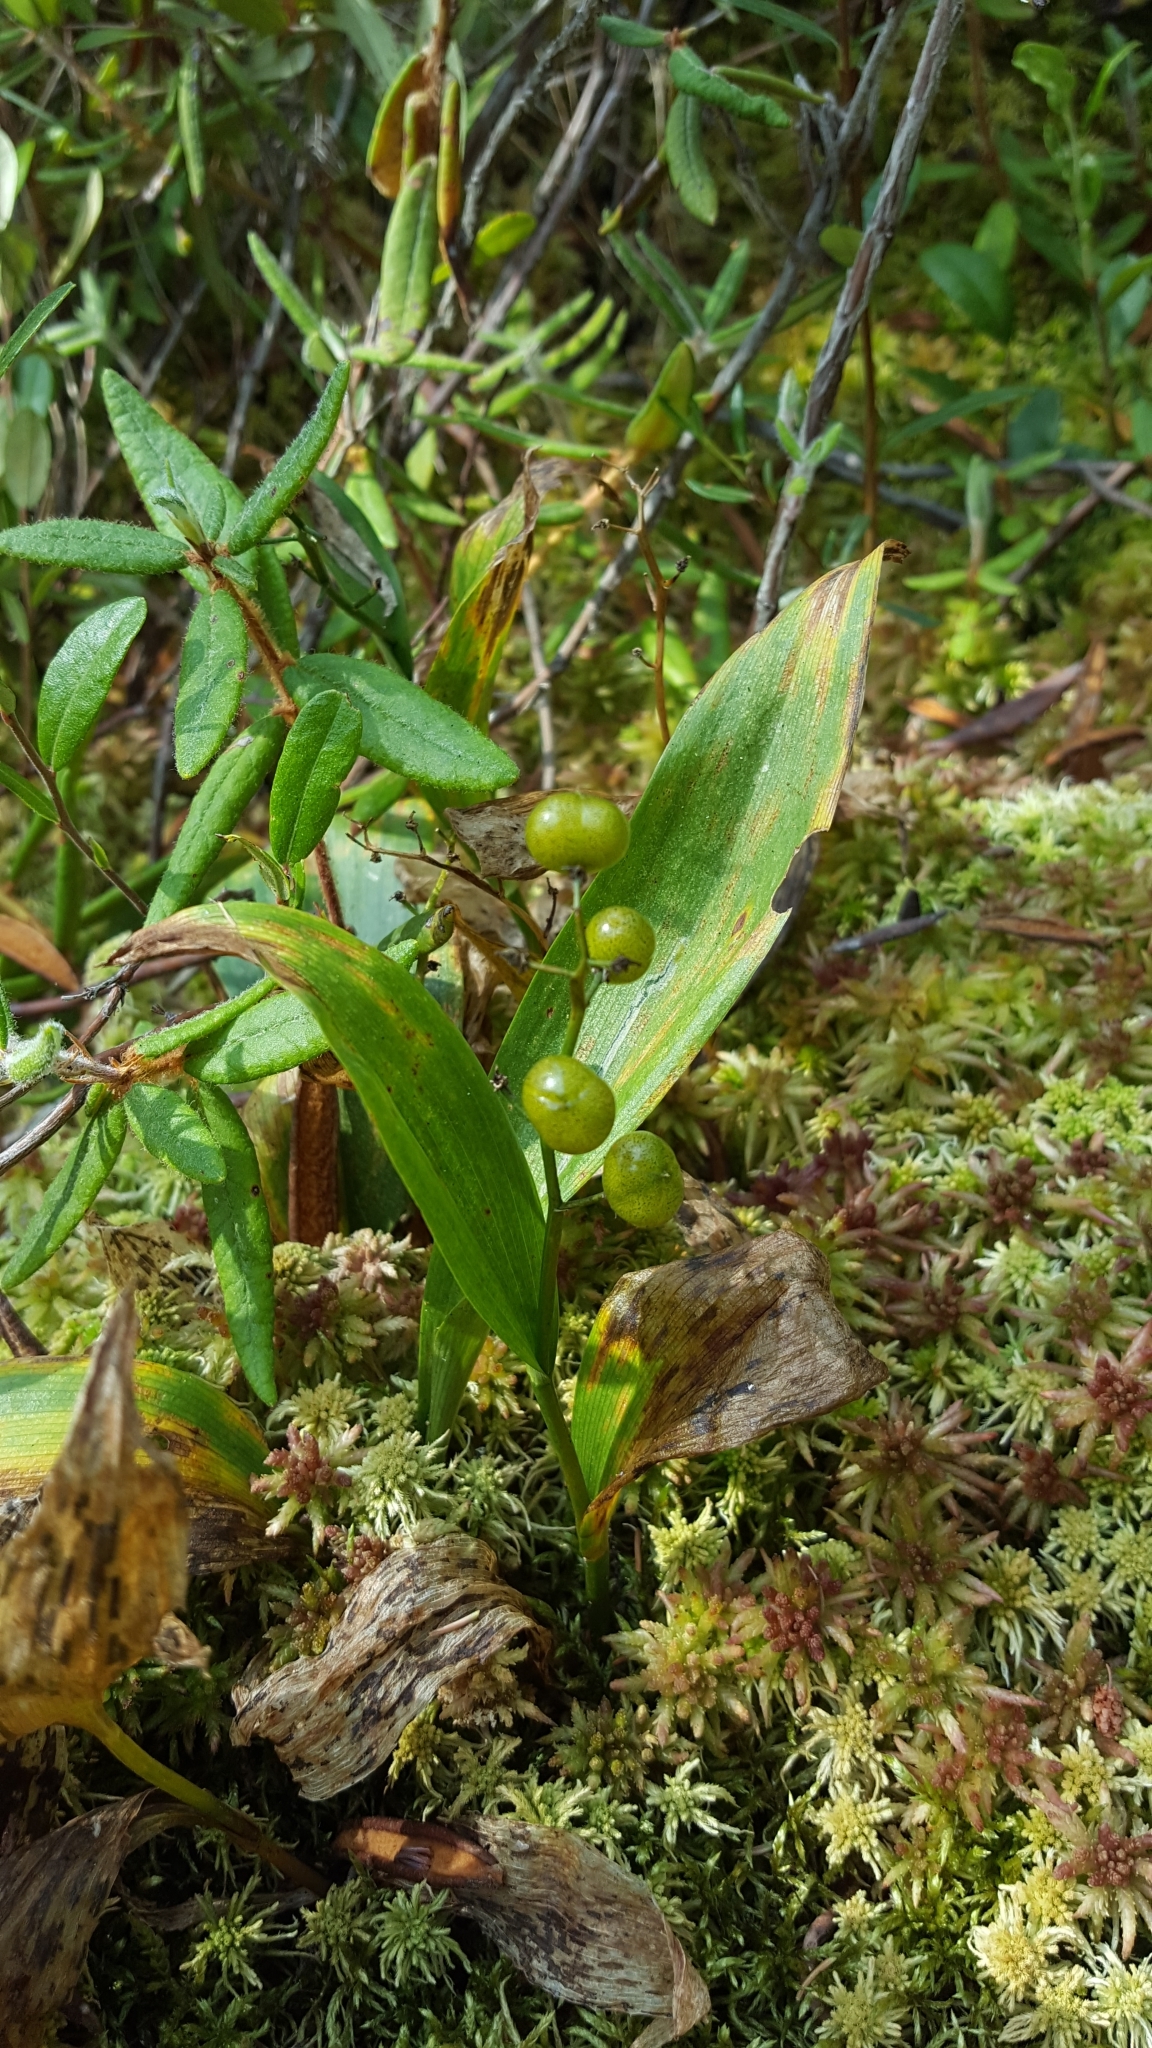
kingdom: Plantae
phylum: Tracheophyta
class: Liliopsida
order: Asparagales
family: Asparagaceae
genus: Maianthemum
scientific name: Maianthemum trifolium
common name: Swamp false solomon's seal
